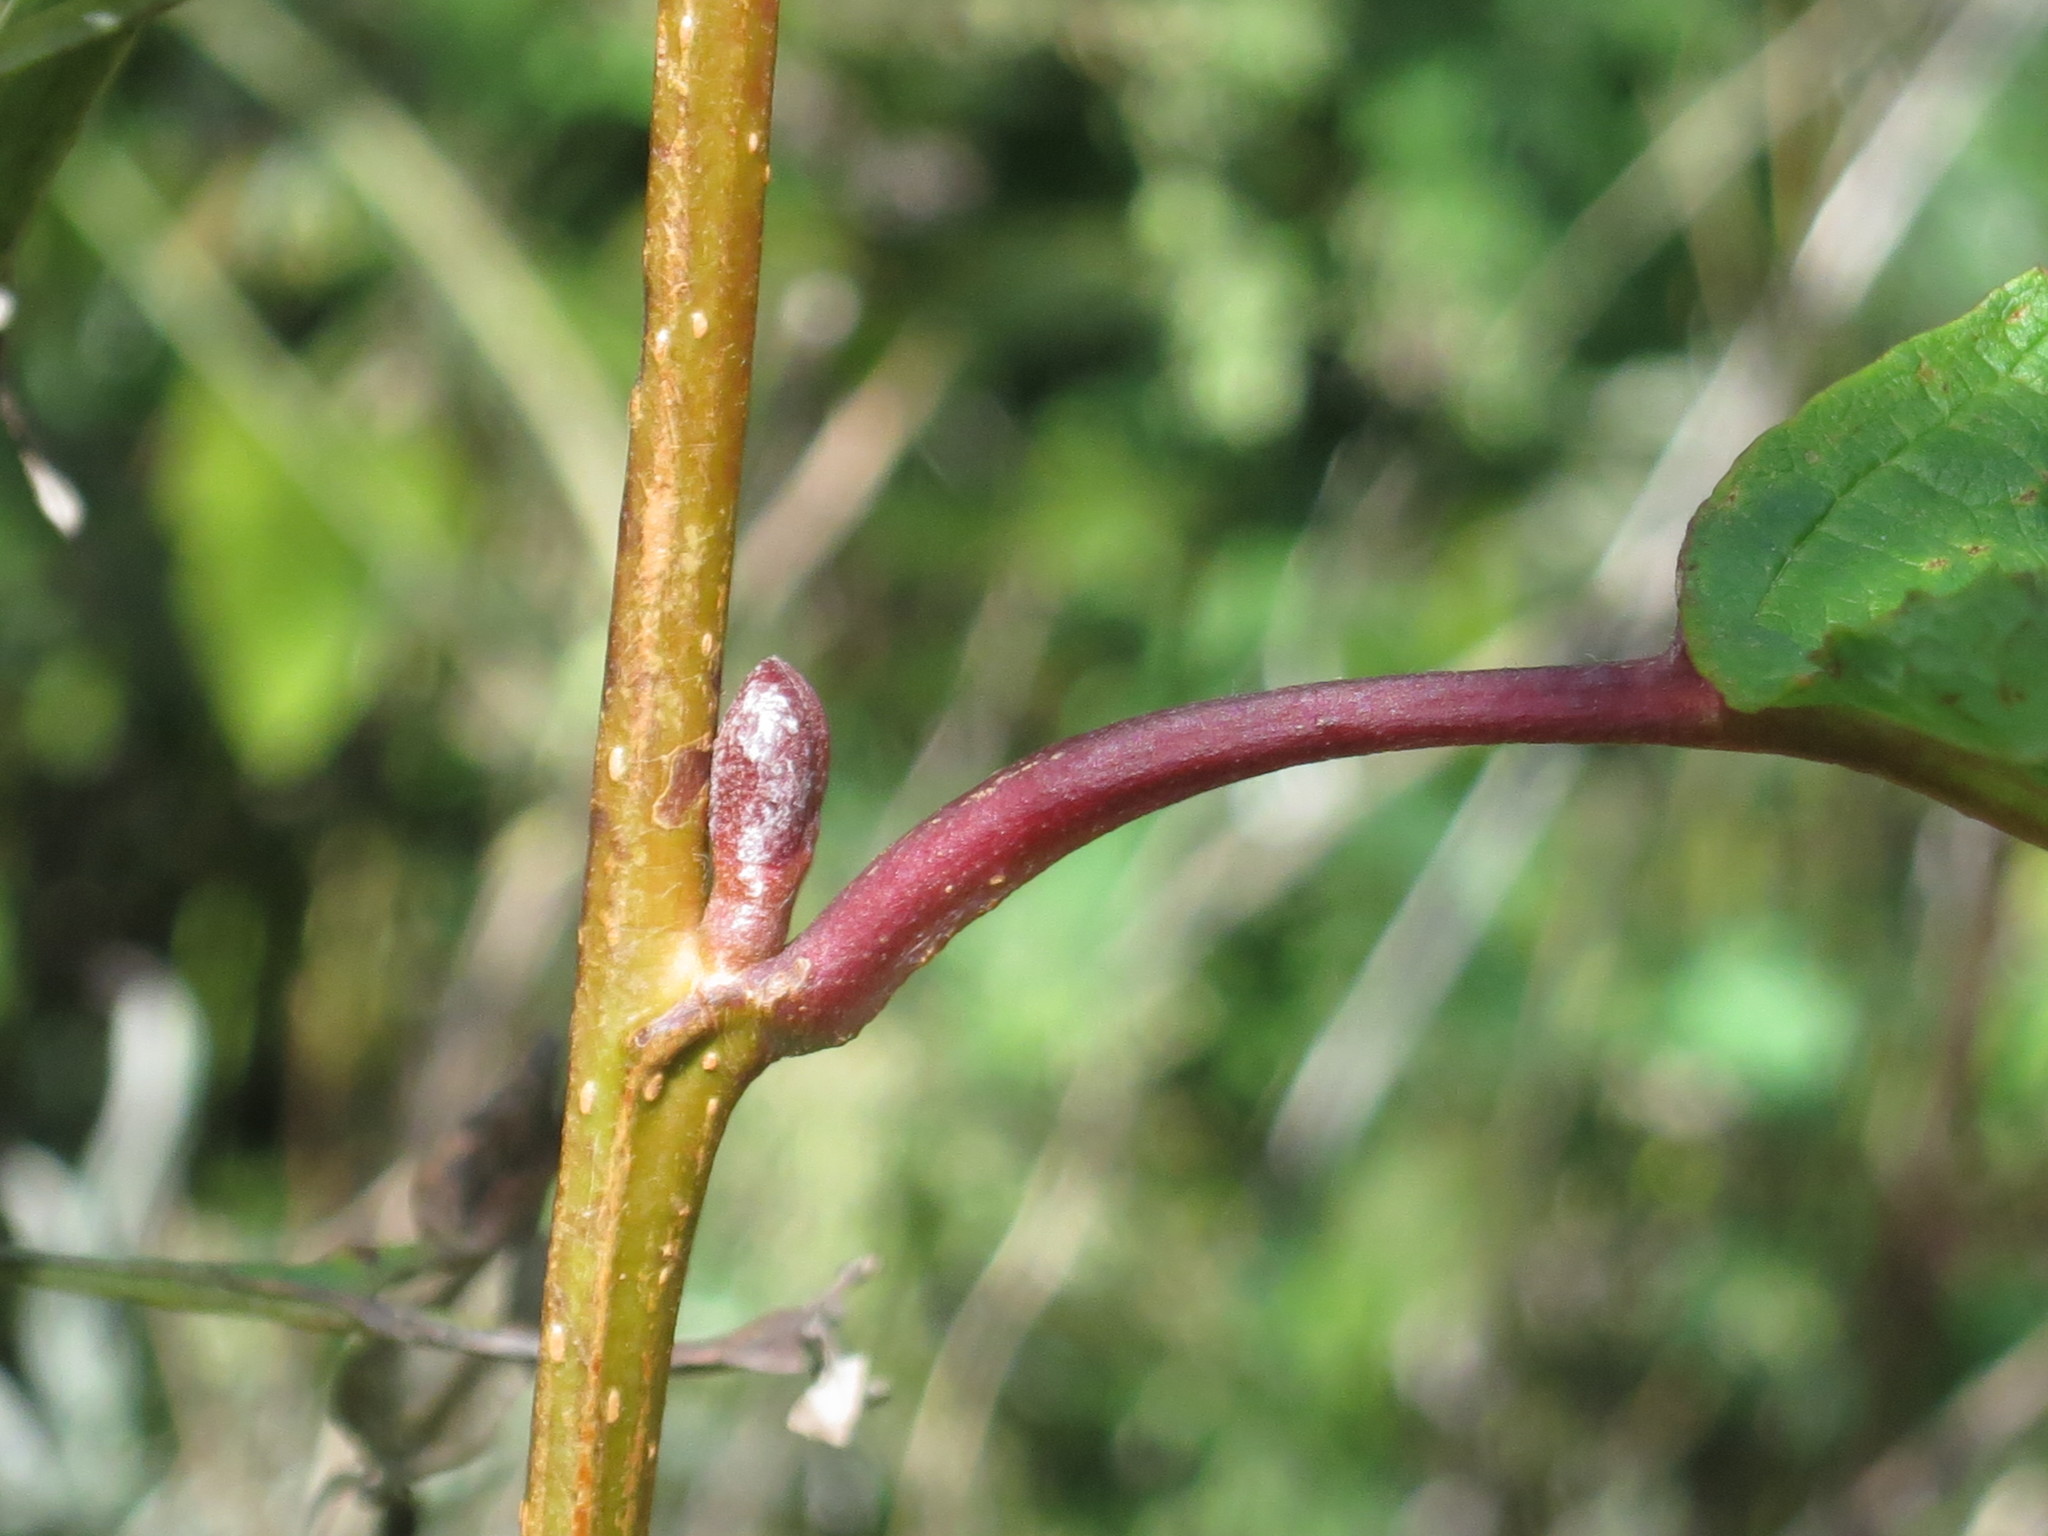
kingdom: Plantae
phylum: Tracheophyta
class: Magnoliopsida
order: Fagales
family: Betulaceae
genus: Alnus
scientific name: Alnus hirsuta
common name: Manchurian alder
